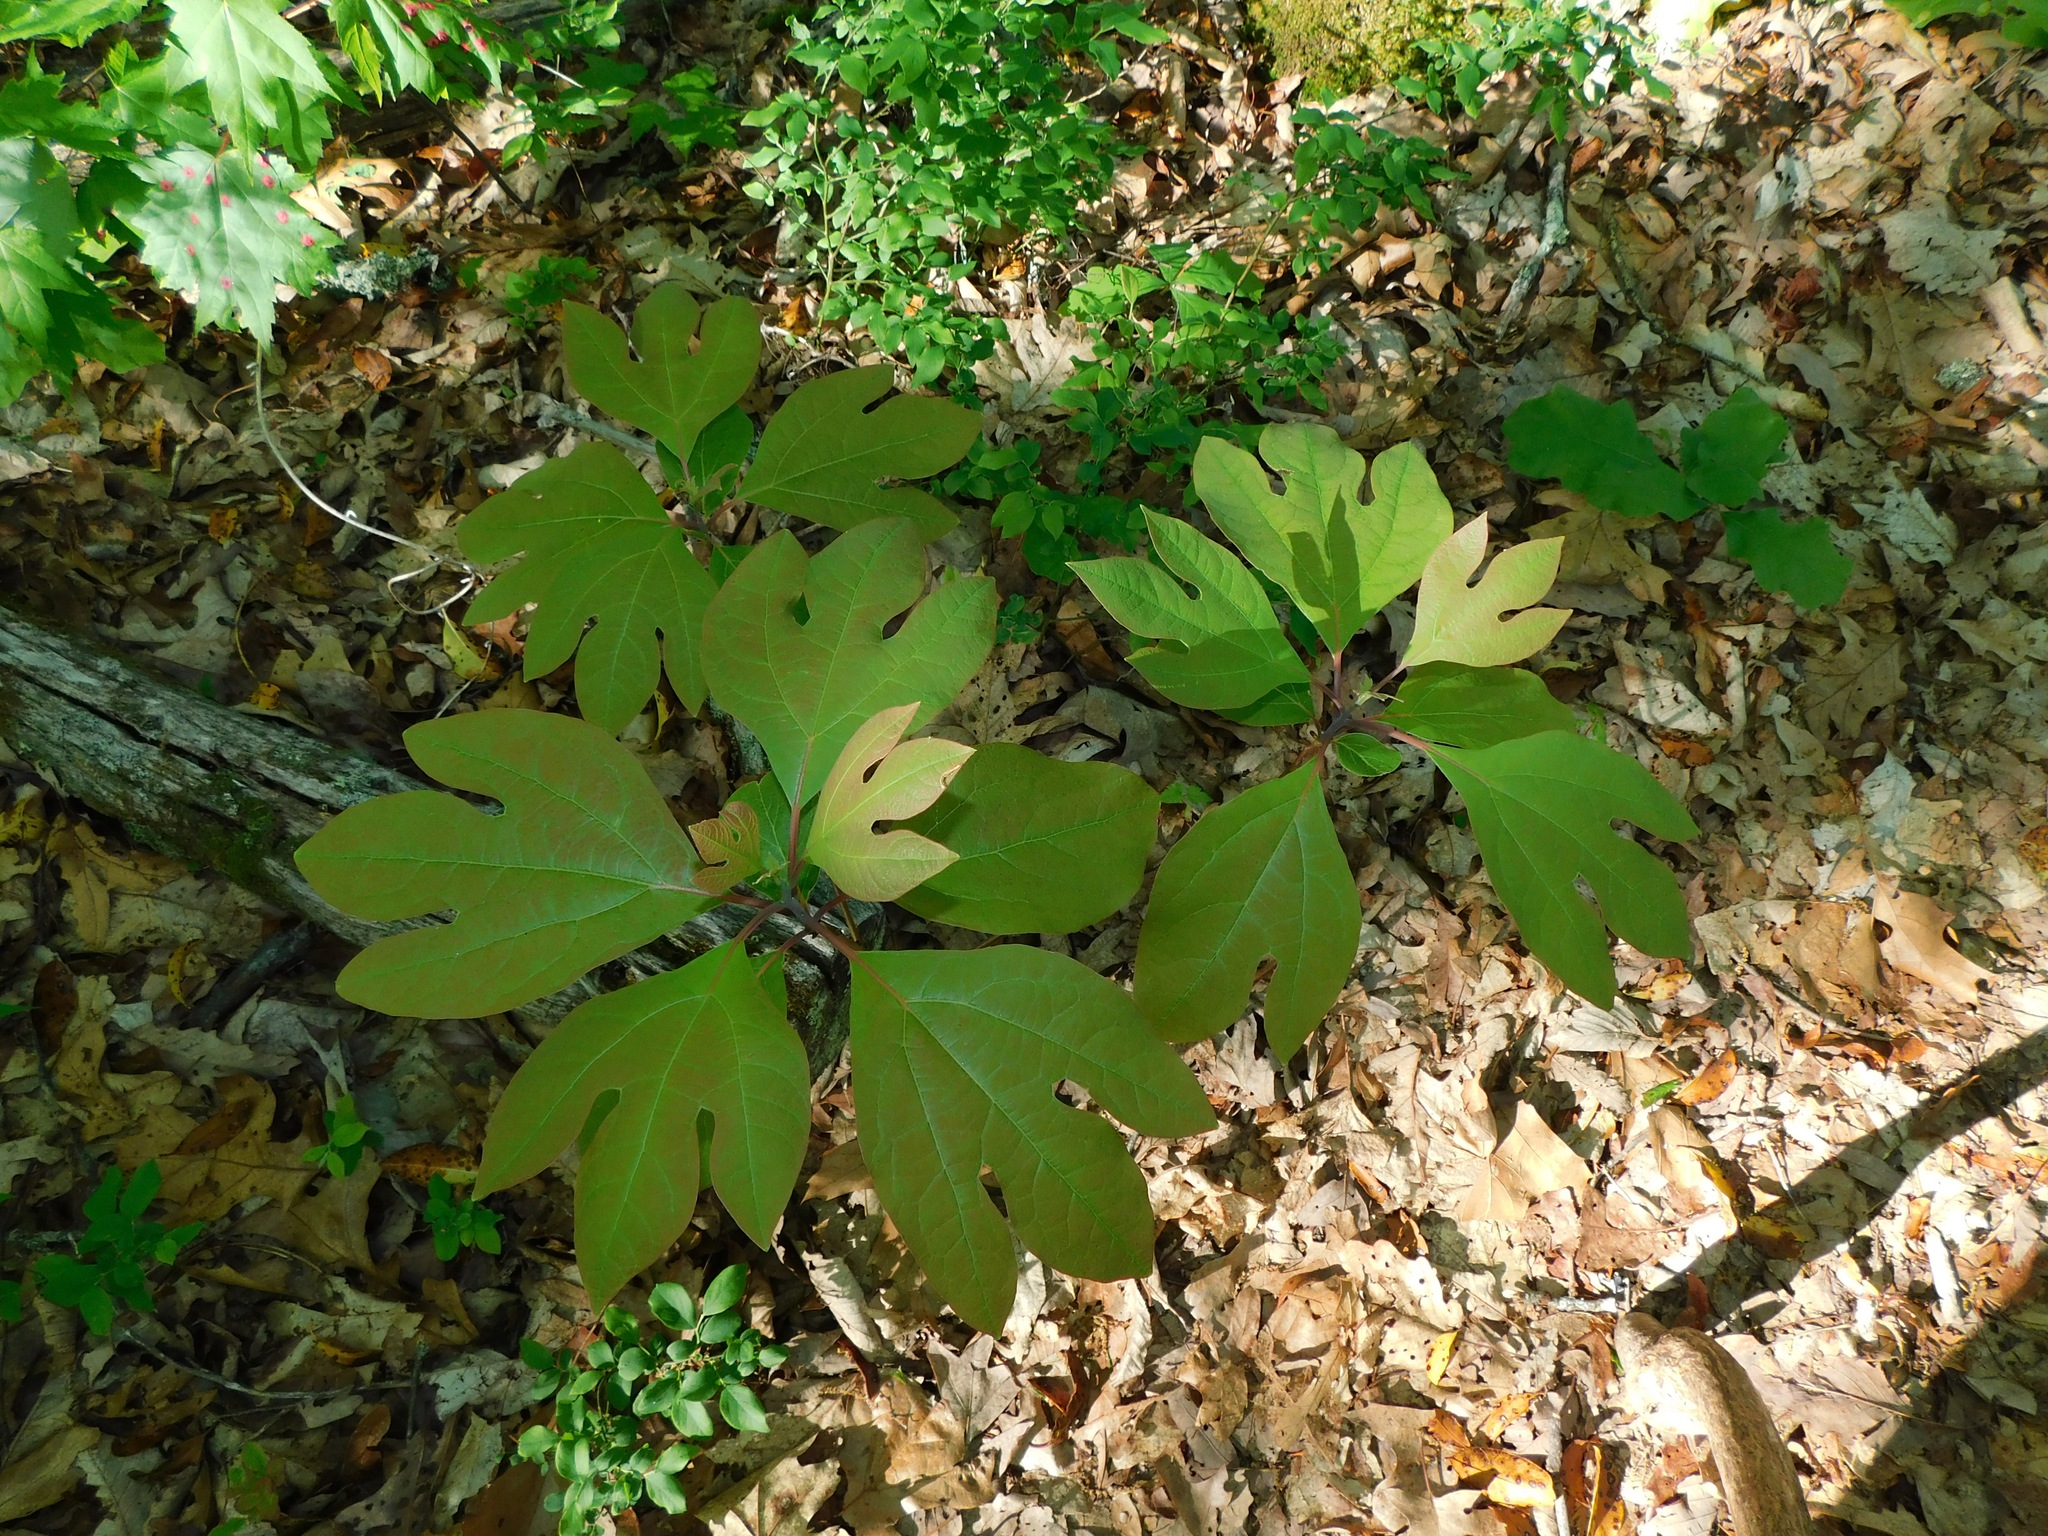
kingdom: Plantae
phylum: Tracheophyta
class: Magnoliopsida
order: Laurales
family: Lauraceae
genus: Sassafras
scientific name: Sassafras albidum
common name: Sassafras
